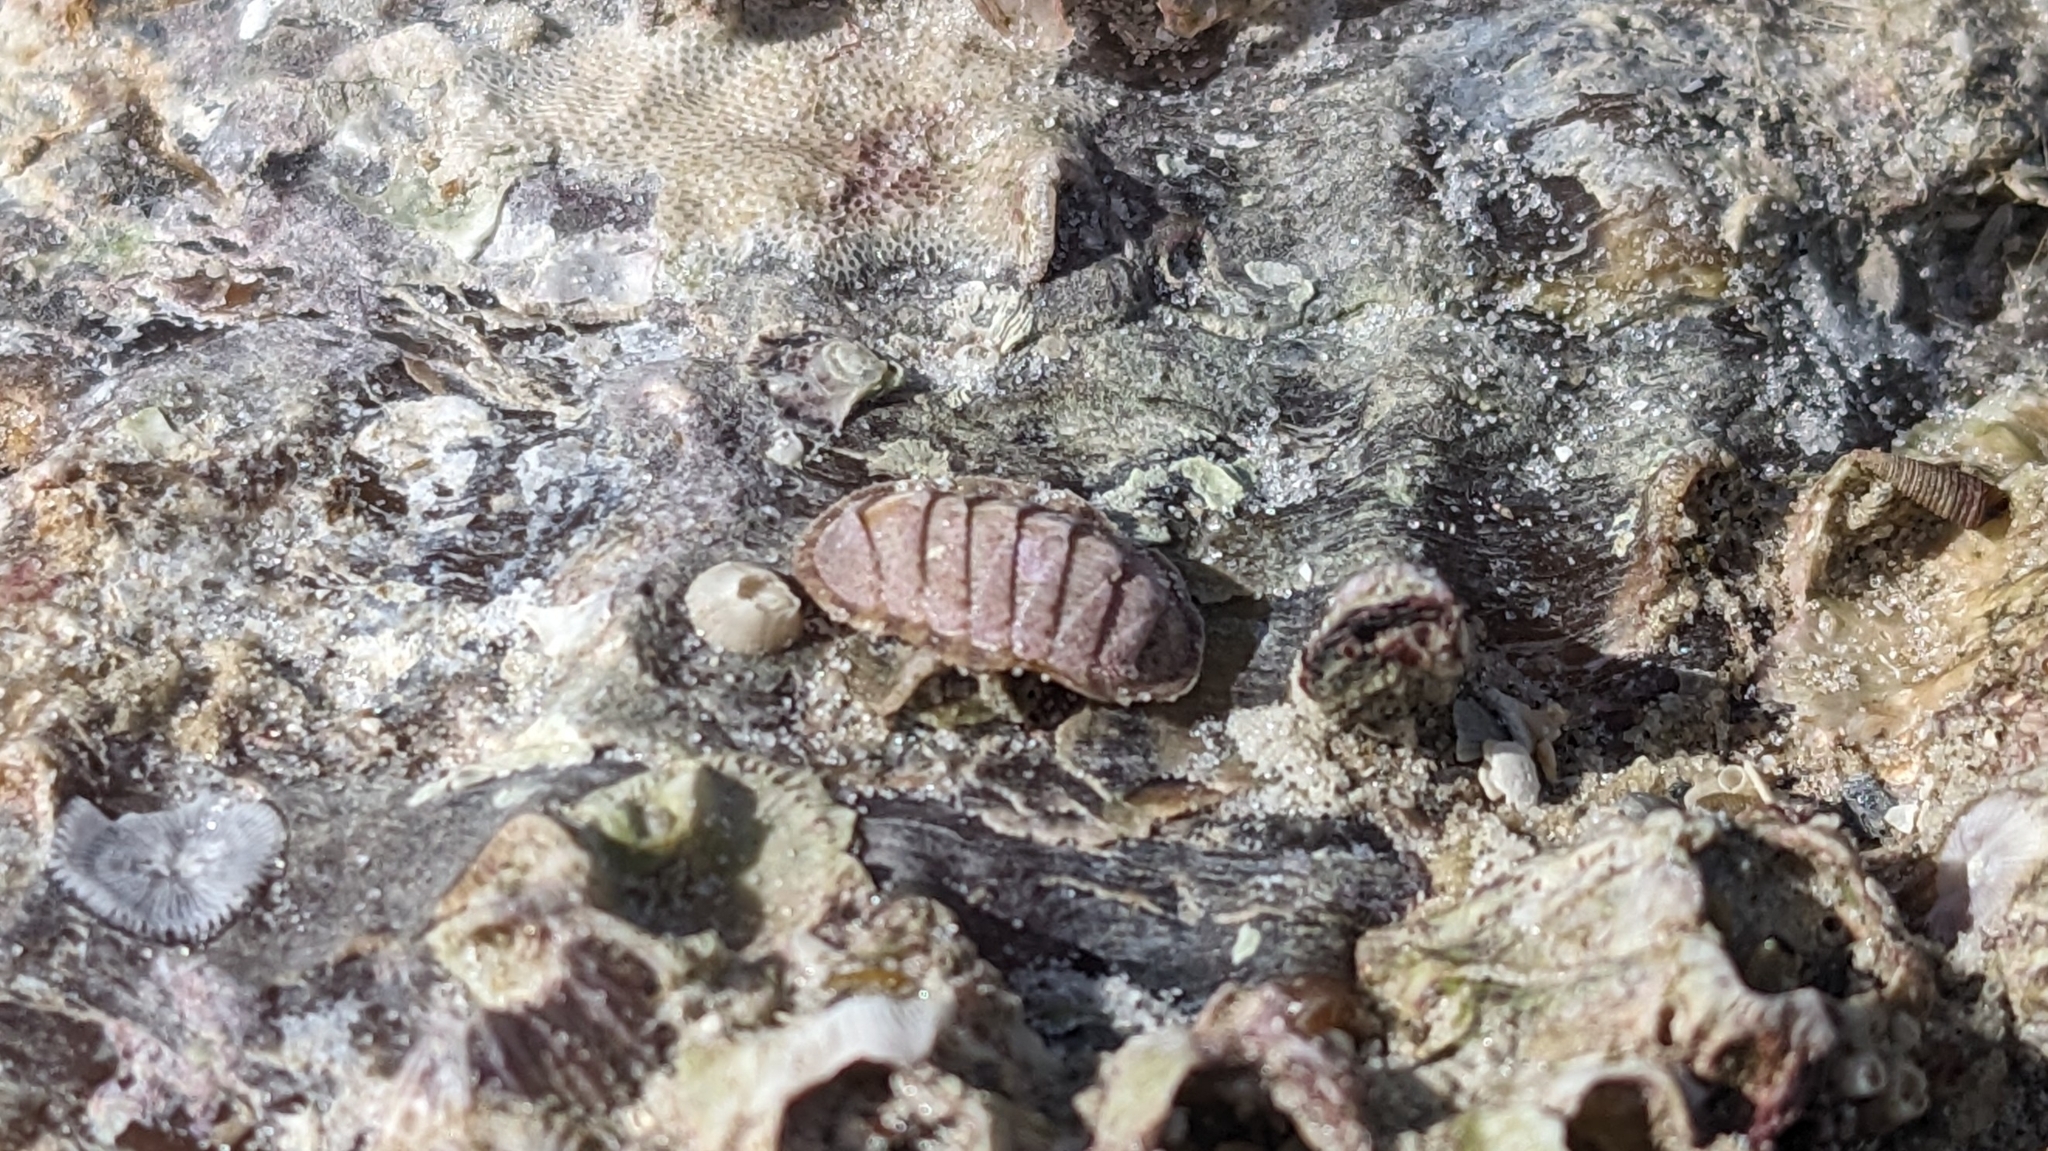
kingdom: Animalia
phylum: Mollusca
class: Polyplacophora
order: Chitonida
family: Chaetopleuridae
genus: Chaetopleura
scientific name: Chaetopleura apiculata
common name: Bee chiton
